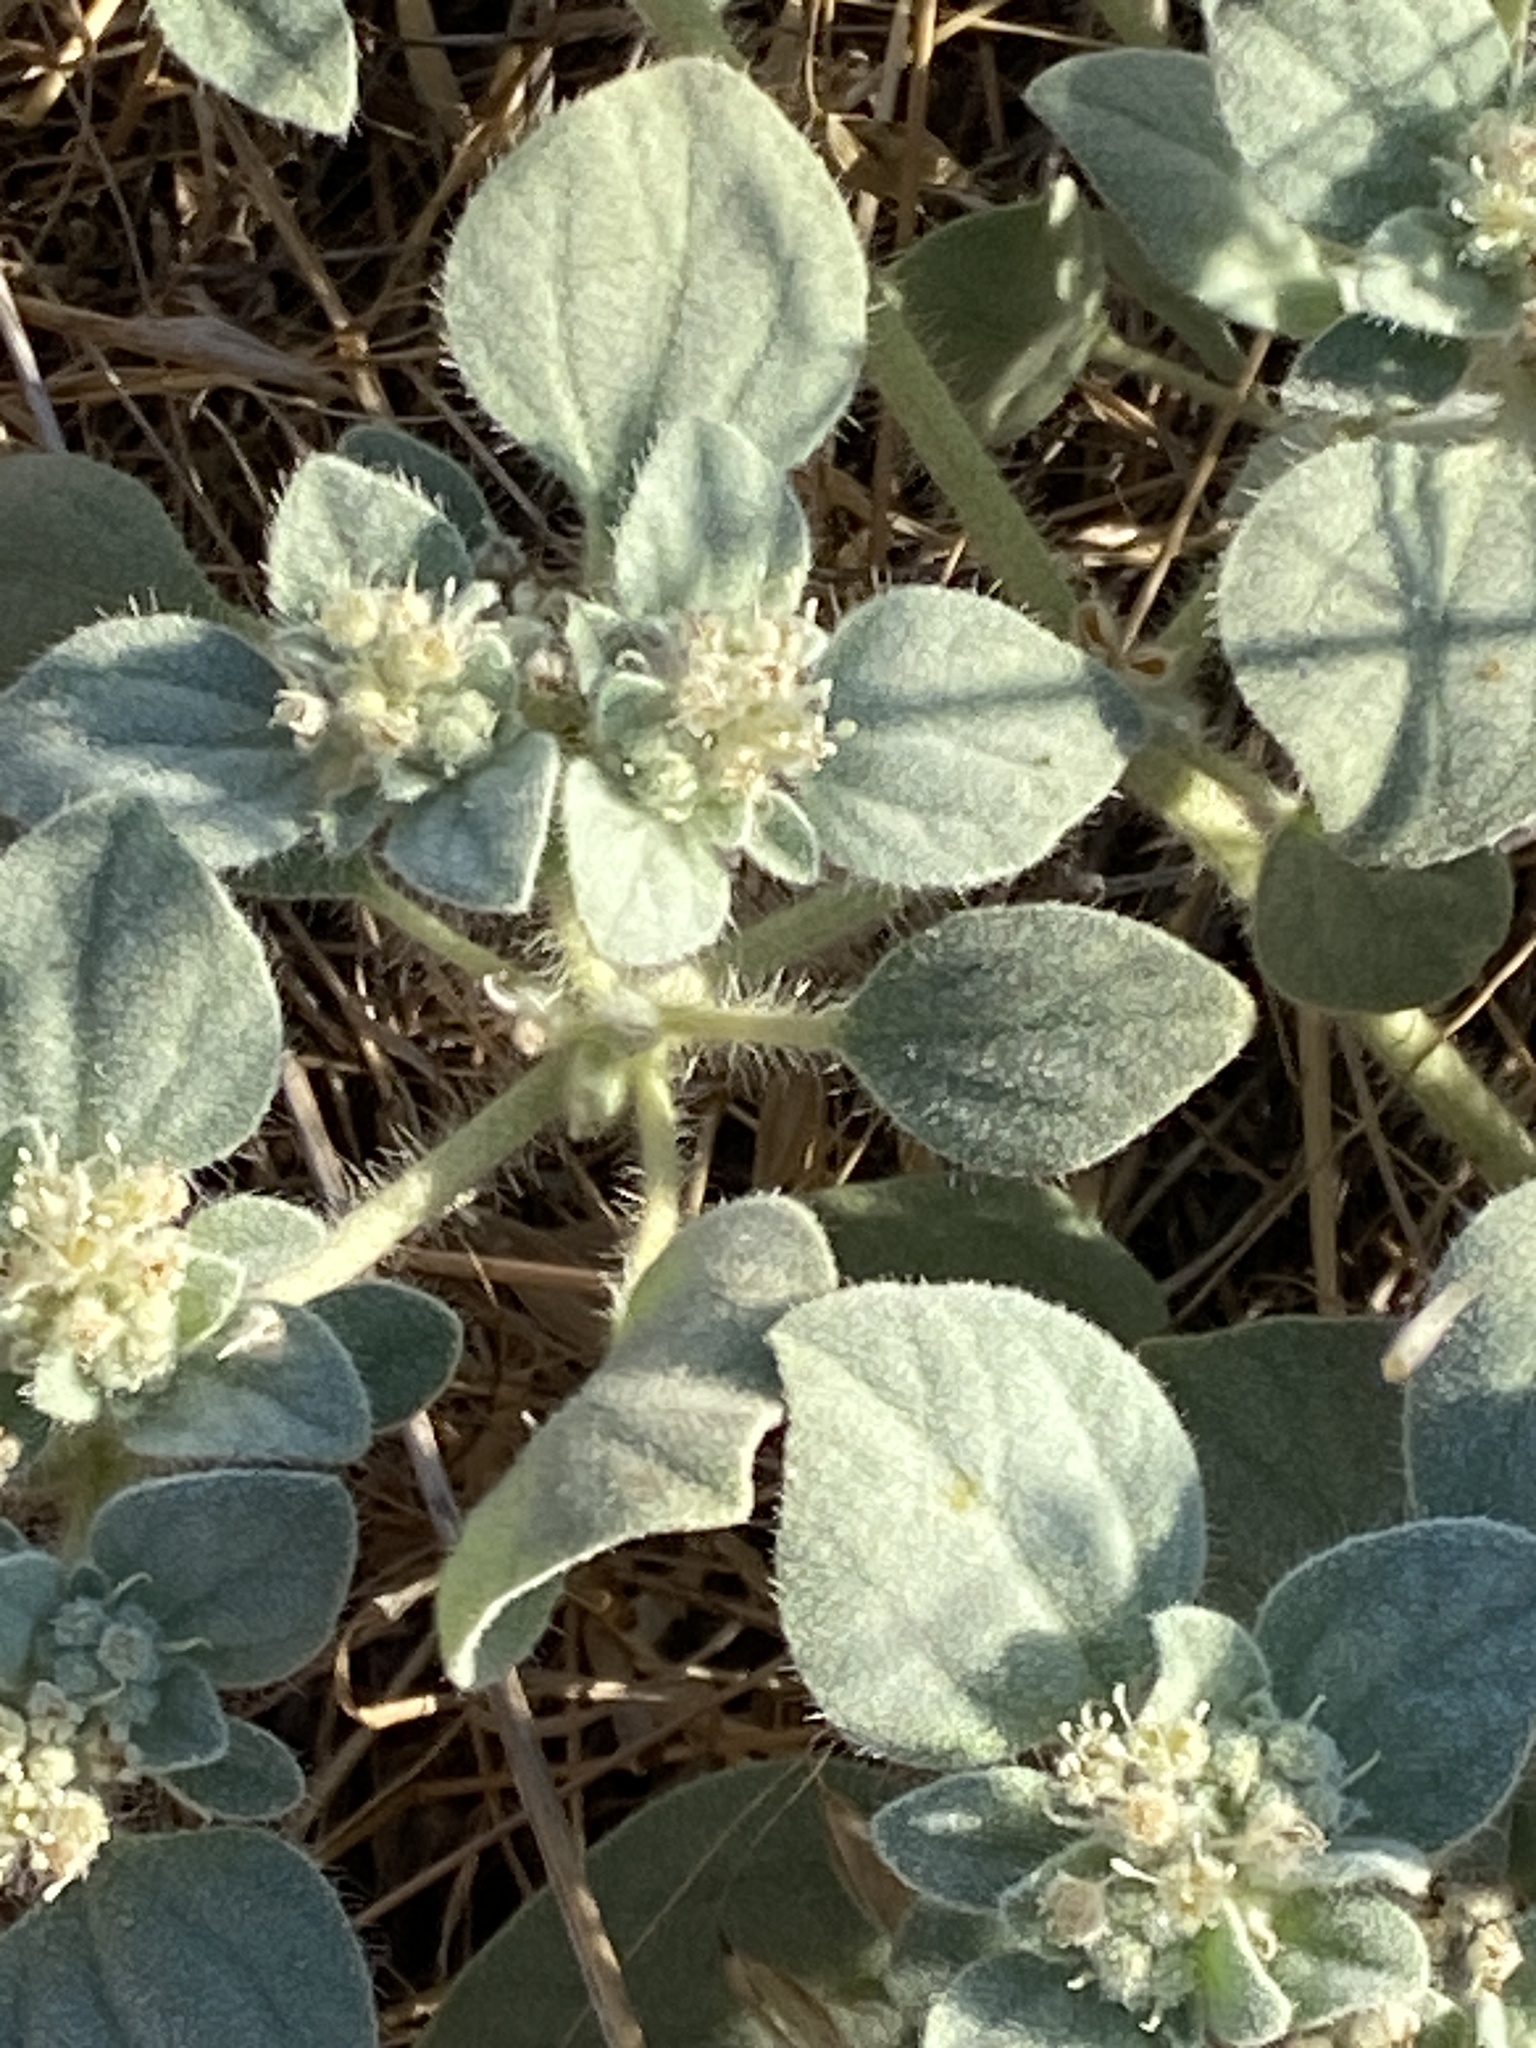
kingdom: Plantae
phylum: Tracheophyta
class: Magnoliopsida
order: Malpighiales
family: Euphorbiaceae
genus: Croton
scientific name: Croton setiger
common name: Dove weed
